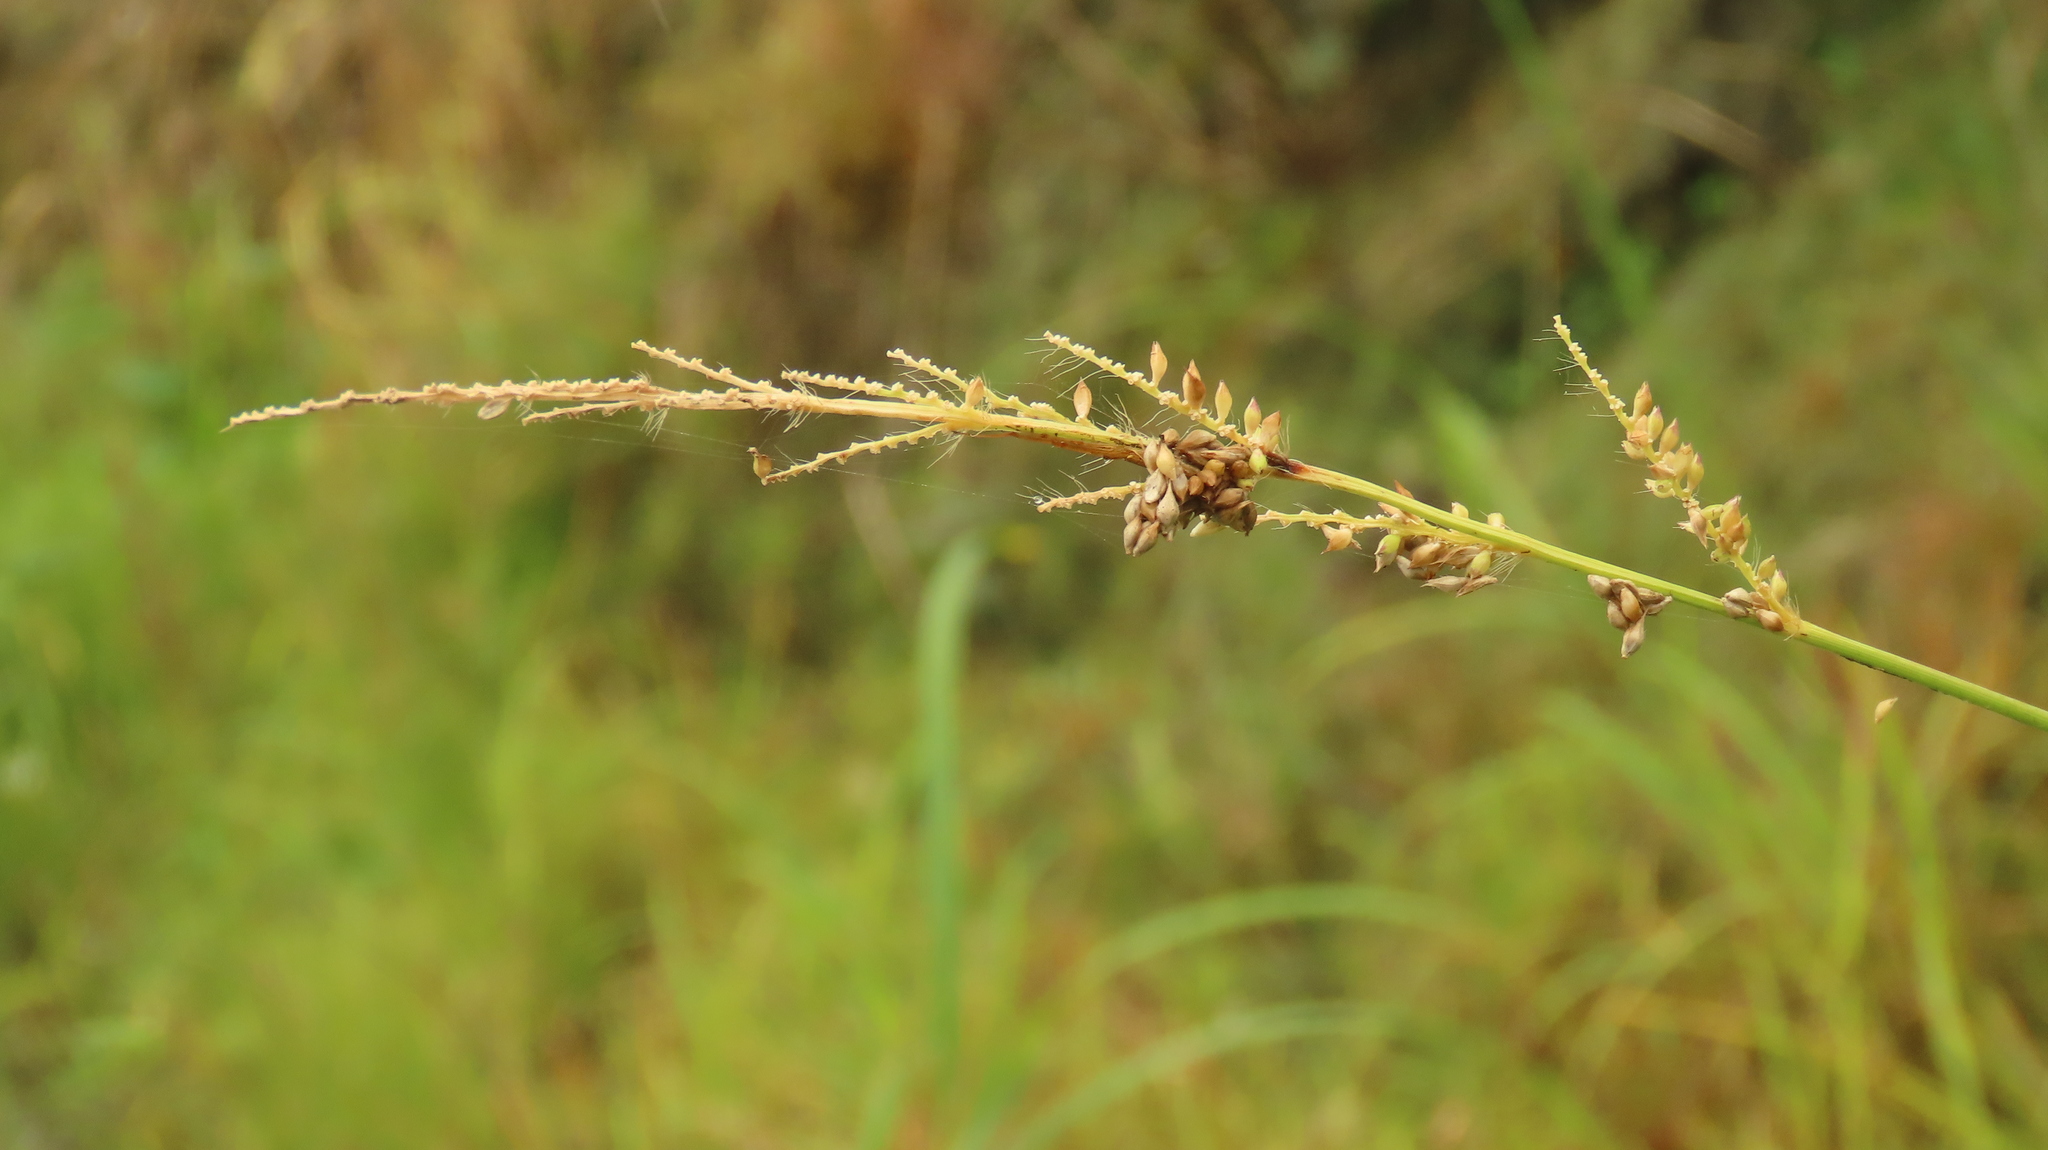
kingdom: Plantae
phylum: Tracheophyta
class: Liliopsida
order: Poales
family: Poaceae
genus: Echinochloa
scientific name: Echinochloa colonum
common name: Jungle rice
